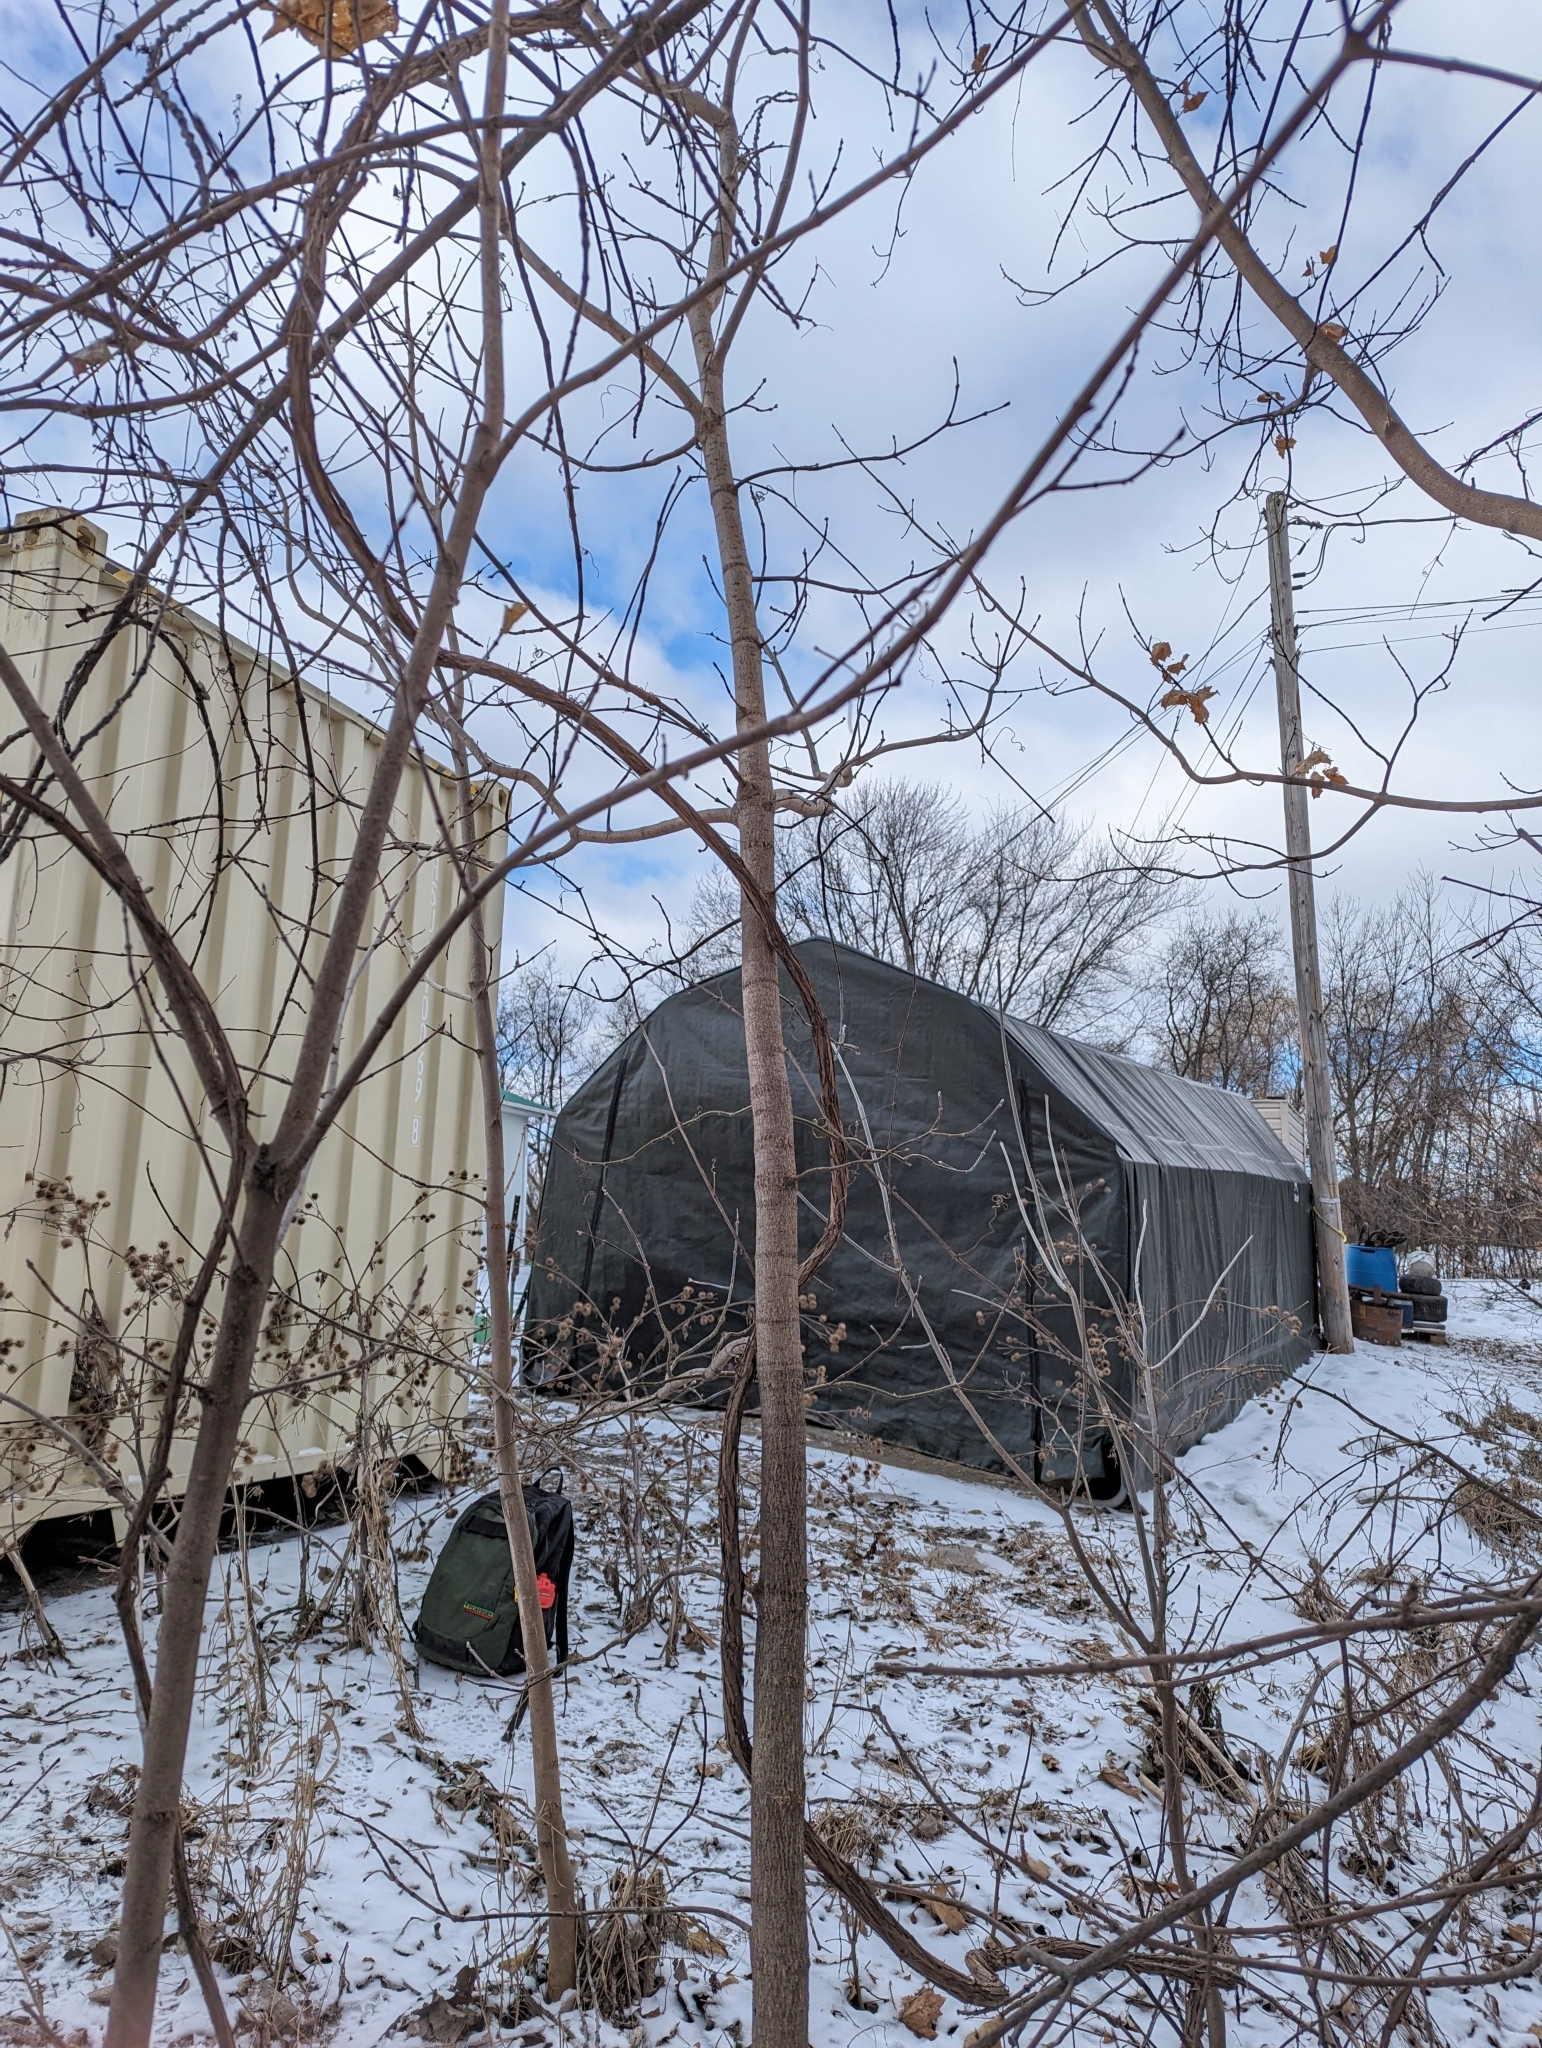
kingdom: Plantae
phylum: Tracheophyta
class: Magnoliopsida
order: Sapindales
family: Sapindaceae
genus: Acer
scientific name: Acer negundo
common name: Ashleaf maple
